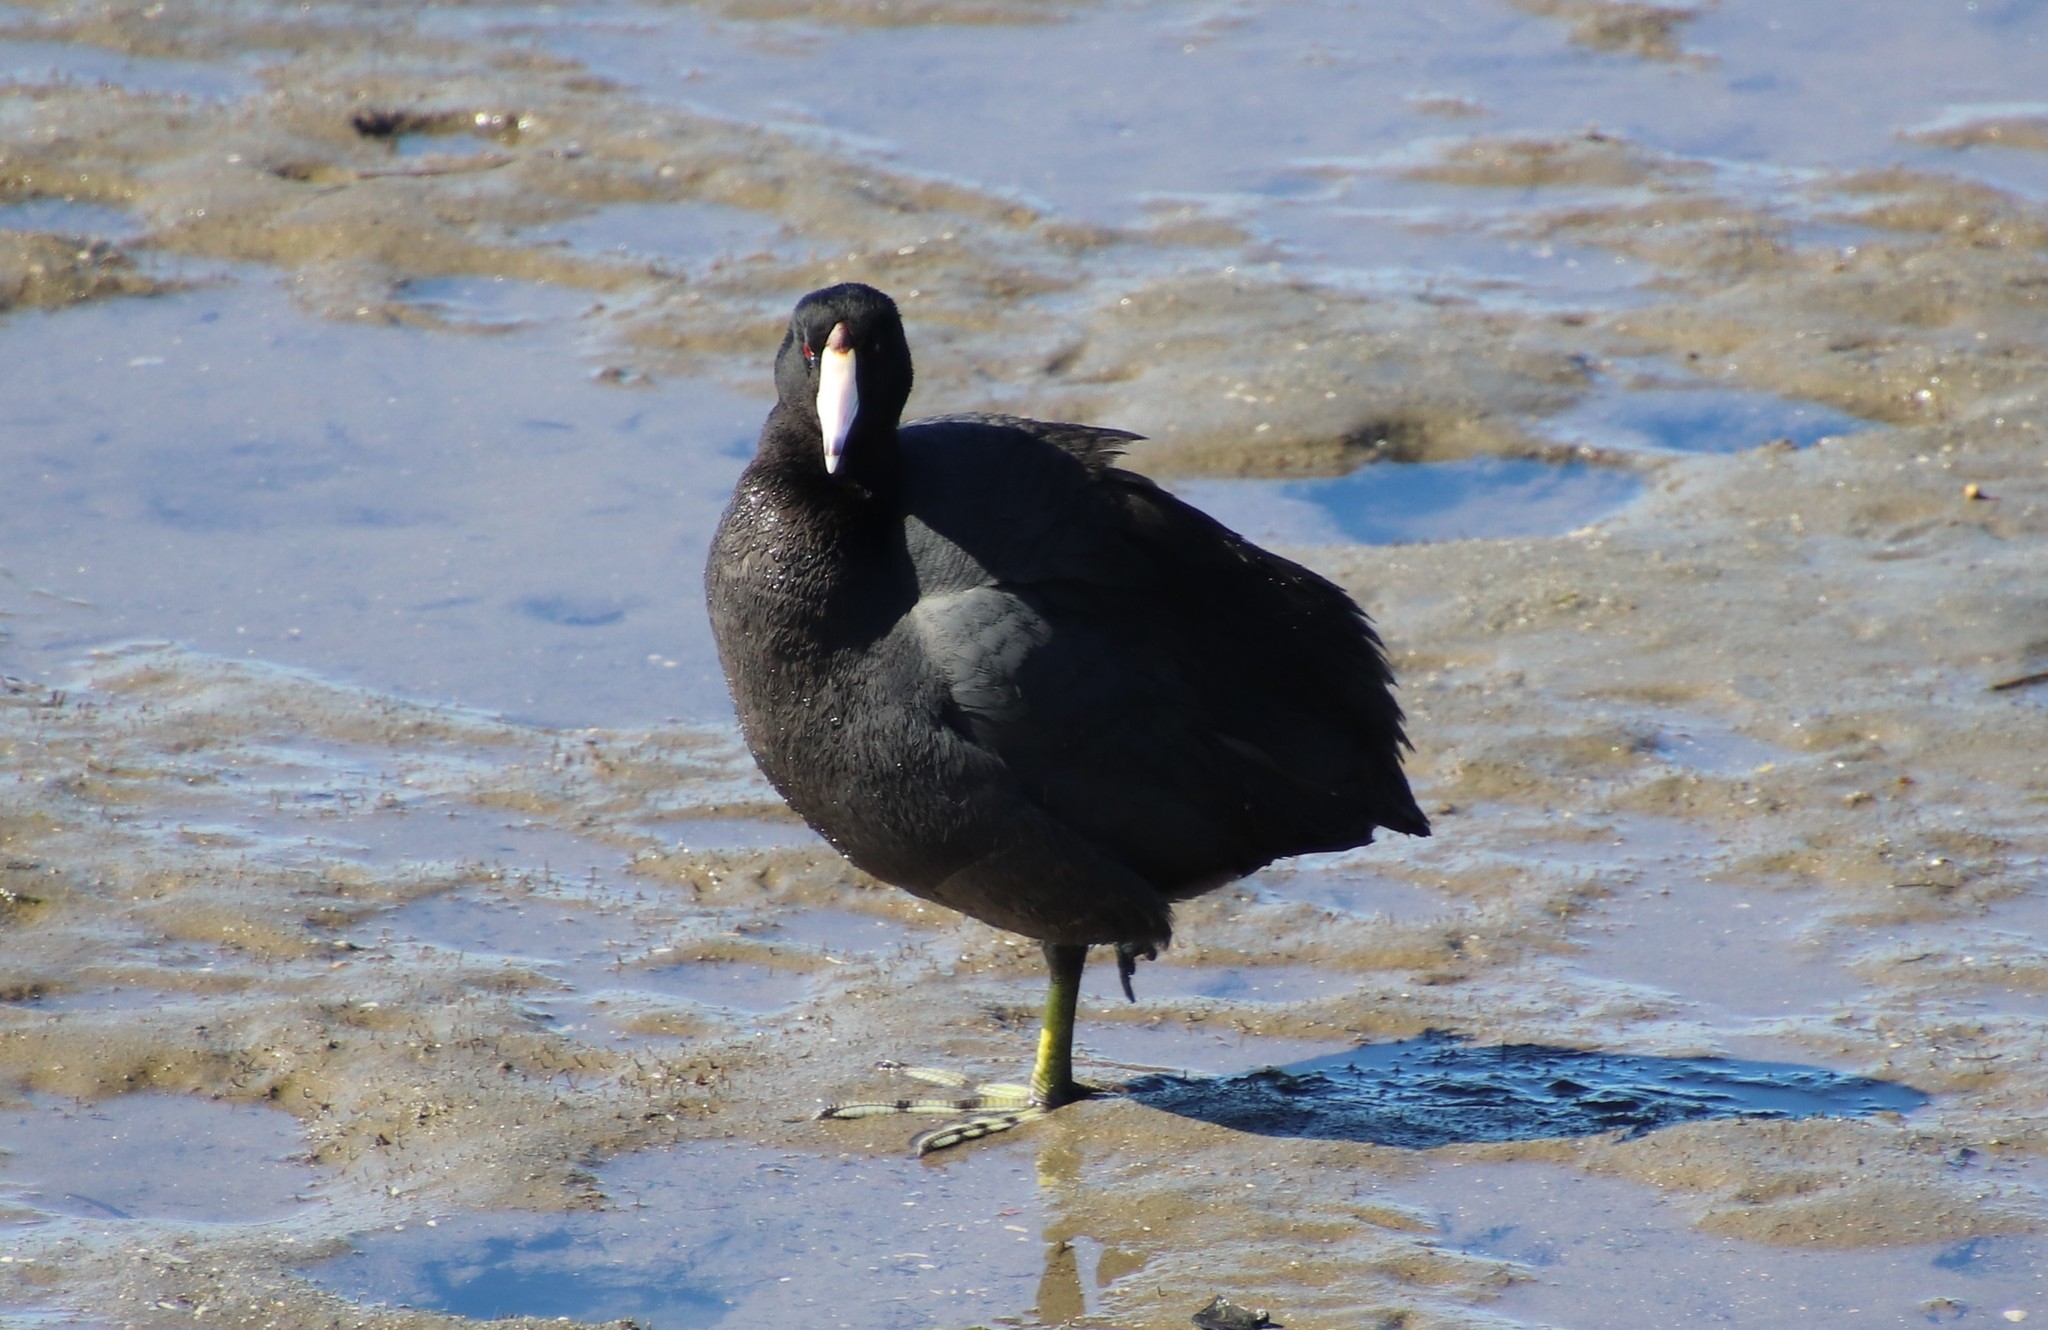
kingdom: Animalia
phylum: Chordata
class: Aves
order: Gruiformes
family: Rallidae
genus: Fulica
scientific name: Fulica americana
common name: American coot
